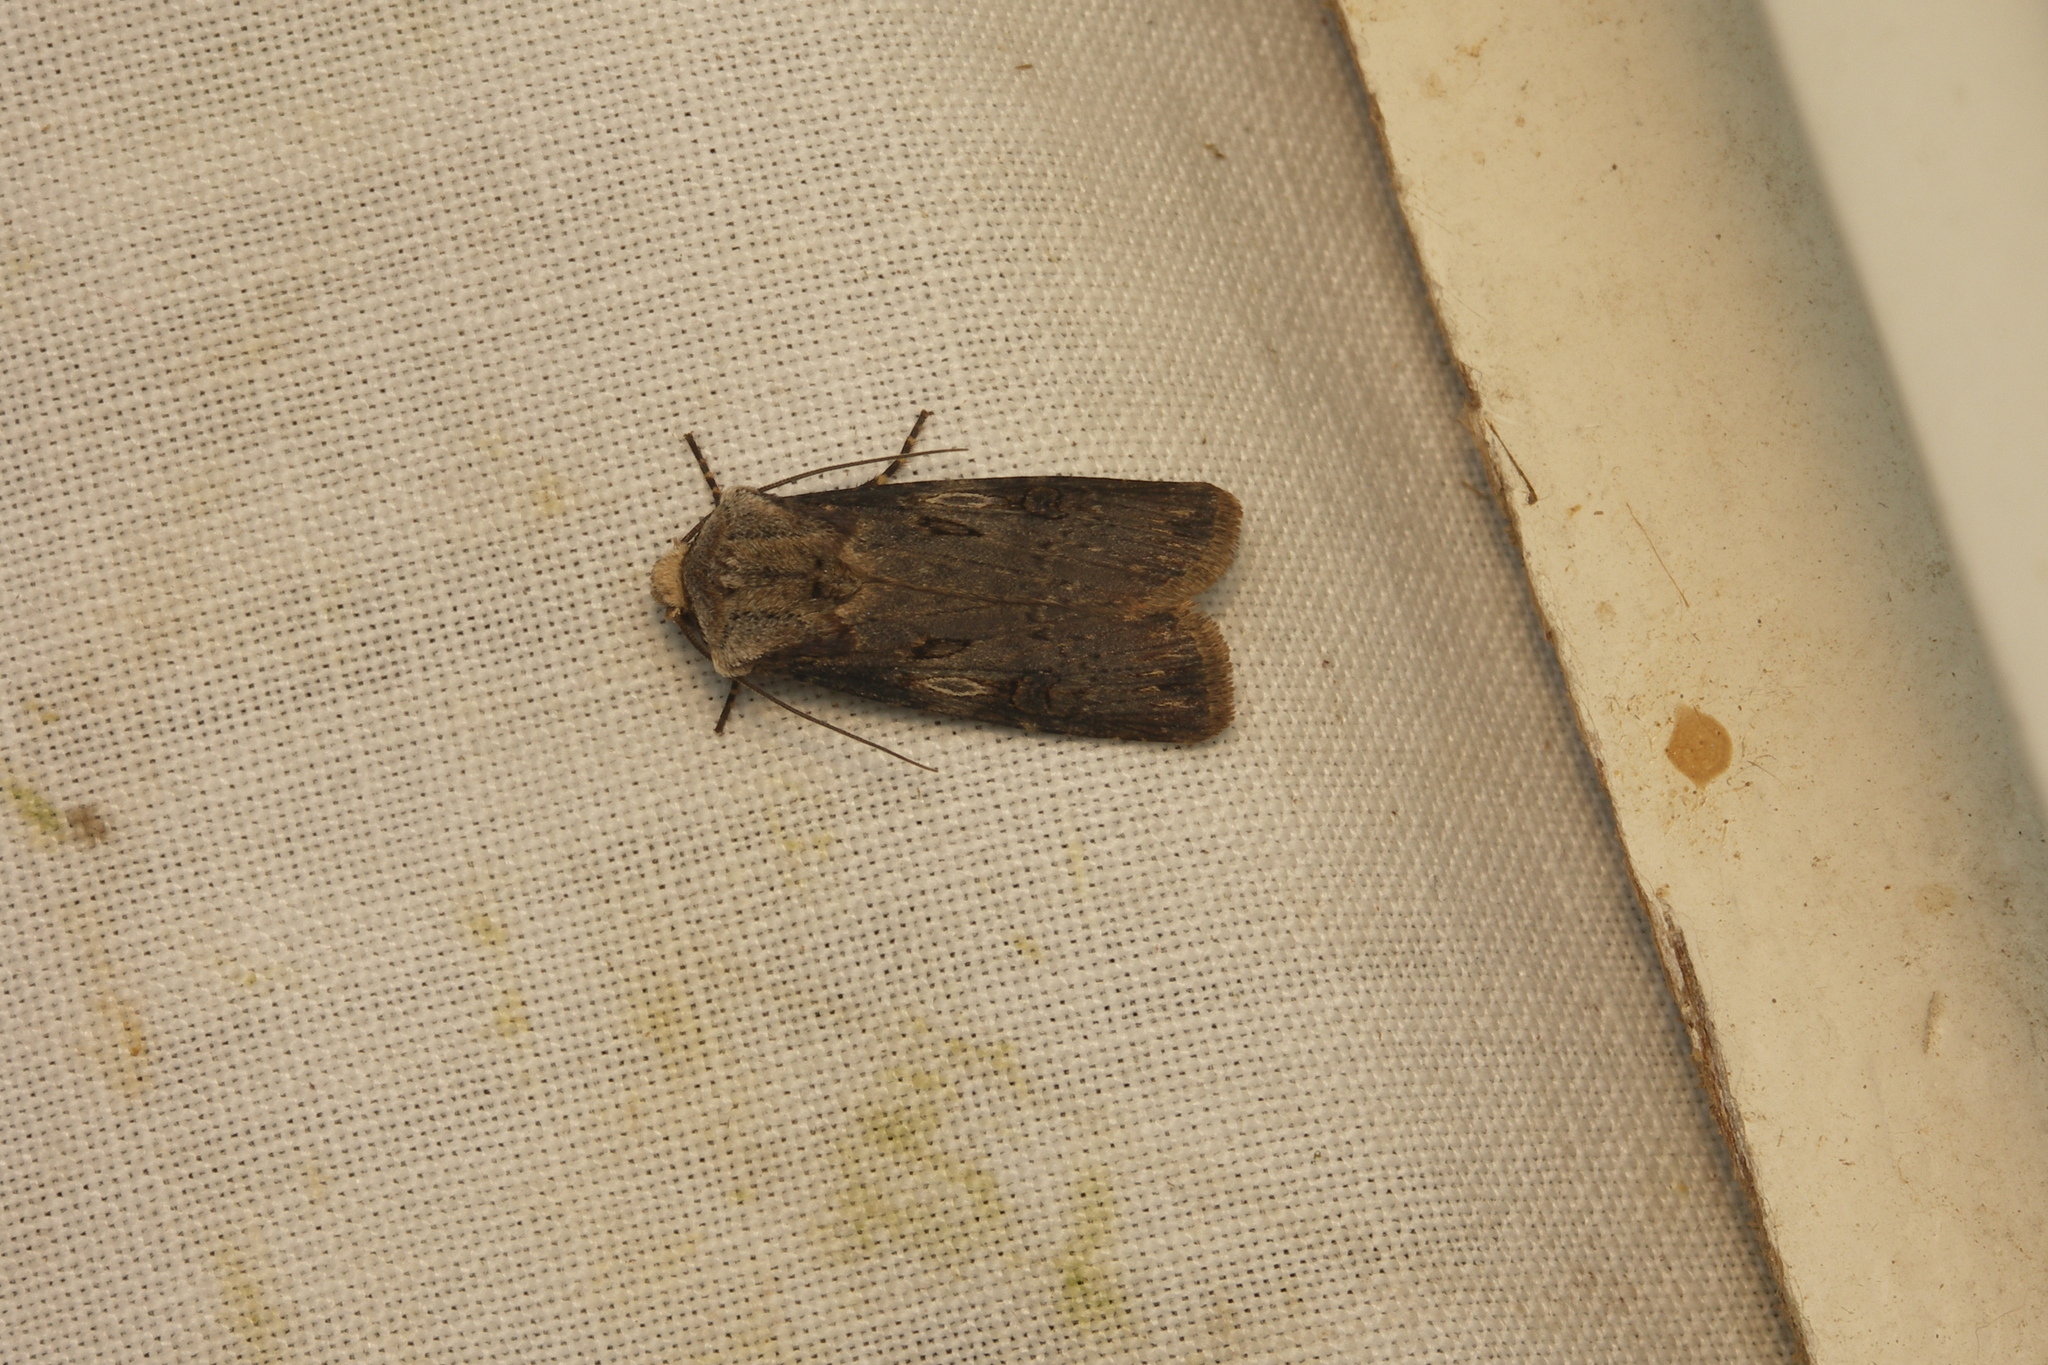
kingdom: Animalia
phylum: Arthropoda
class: Insecta
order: Lepidoptera
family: Noctuidae
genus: Agrotis
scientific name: Agrotis puta
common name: Shuttle-shaped dart
